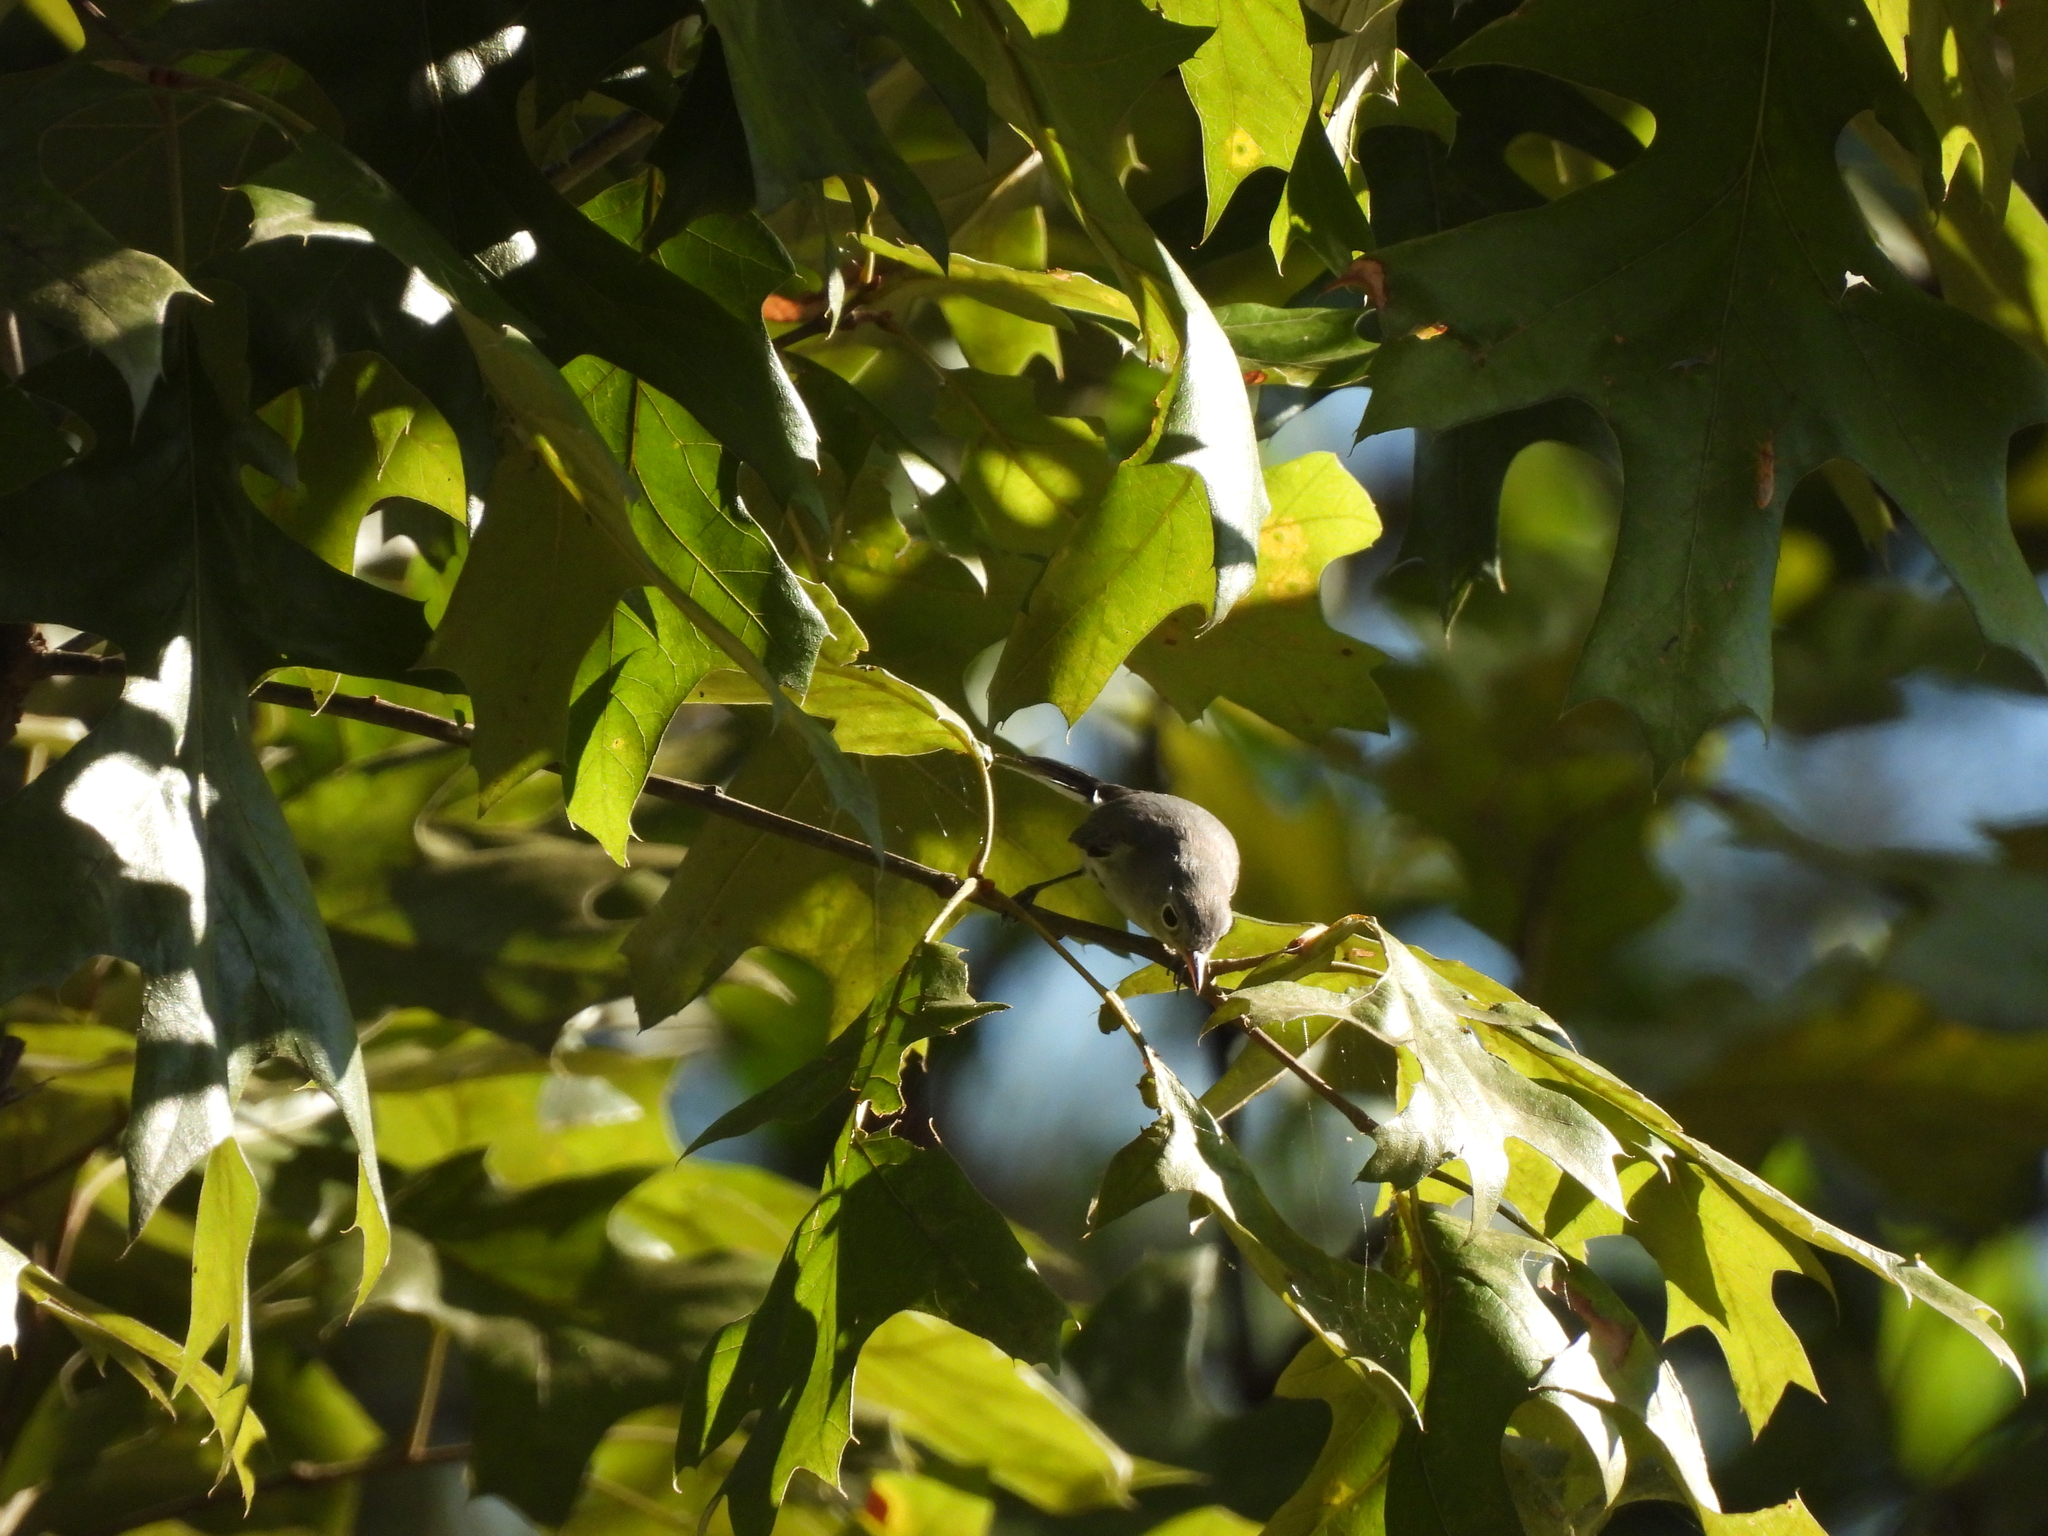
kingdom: Animalia
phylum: Chordata
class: Aves
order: Passeriformes
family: Polioptilidae
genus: Polioptila
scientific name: Polioptila caerulea
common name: Blue-gray gnatcatcher
